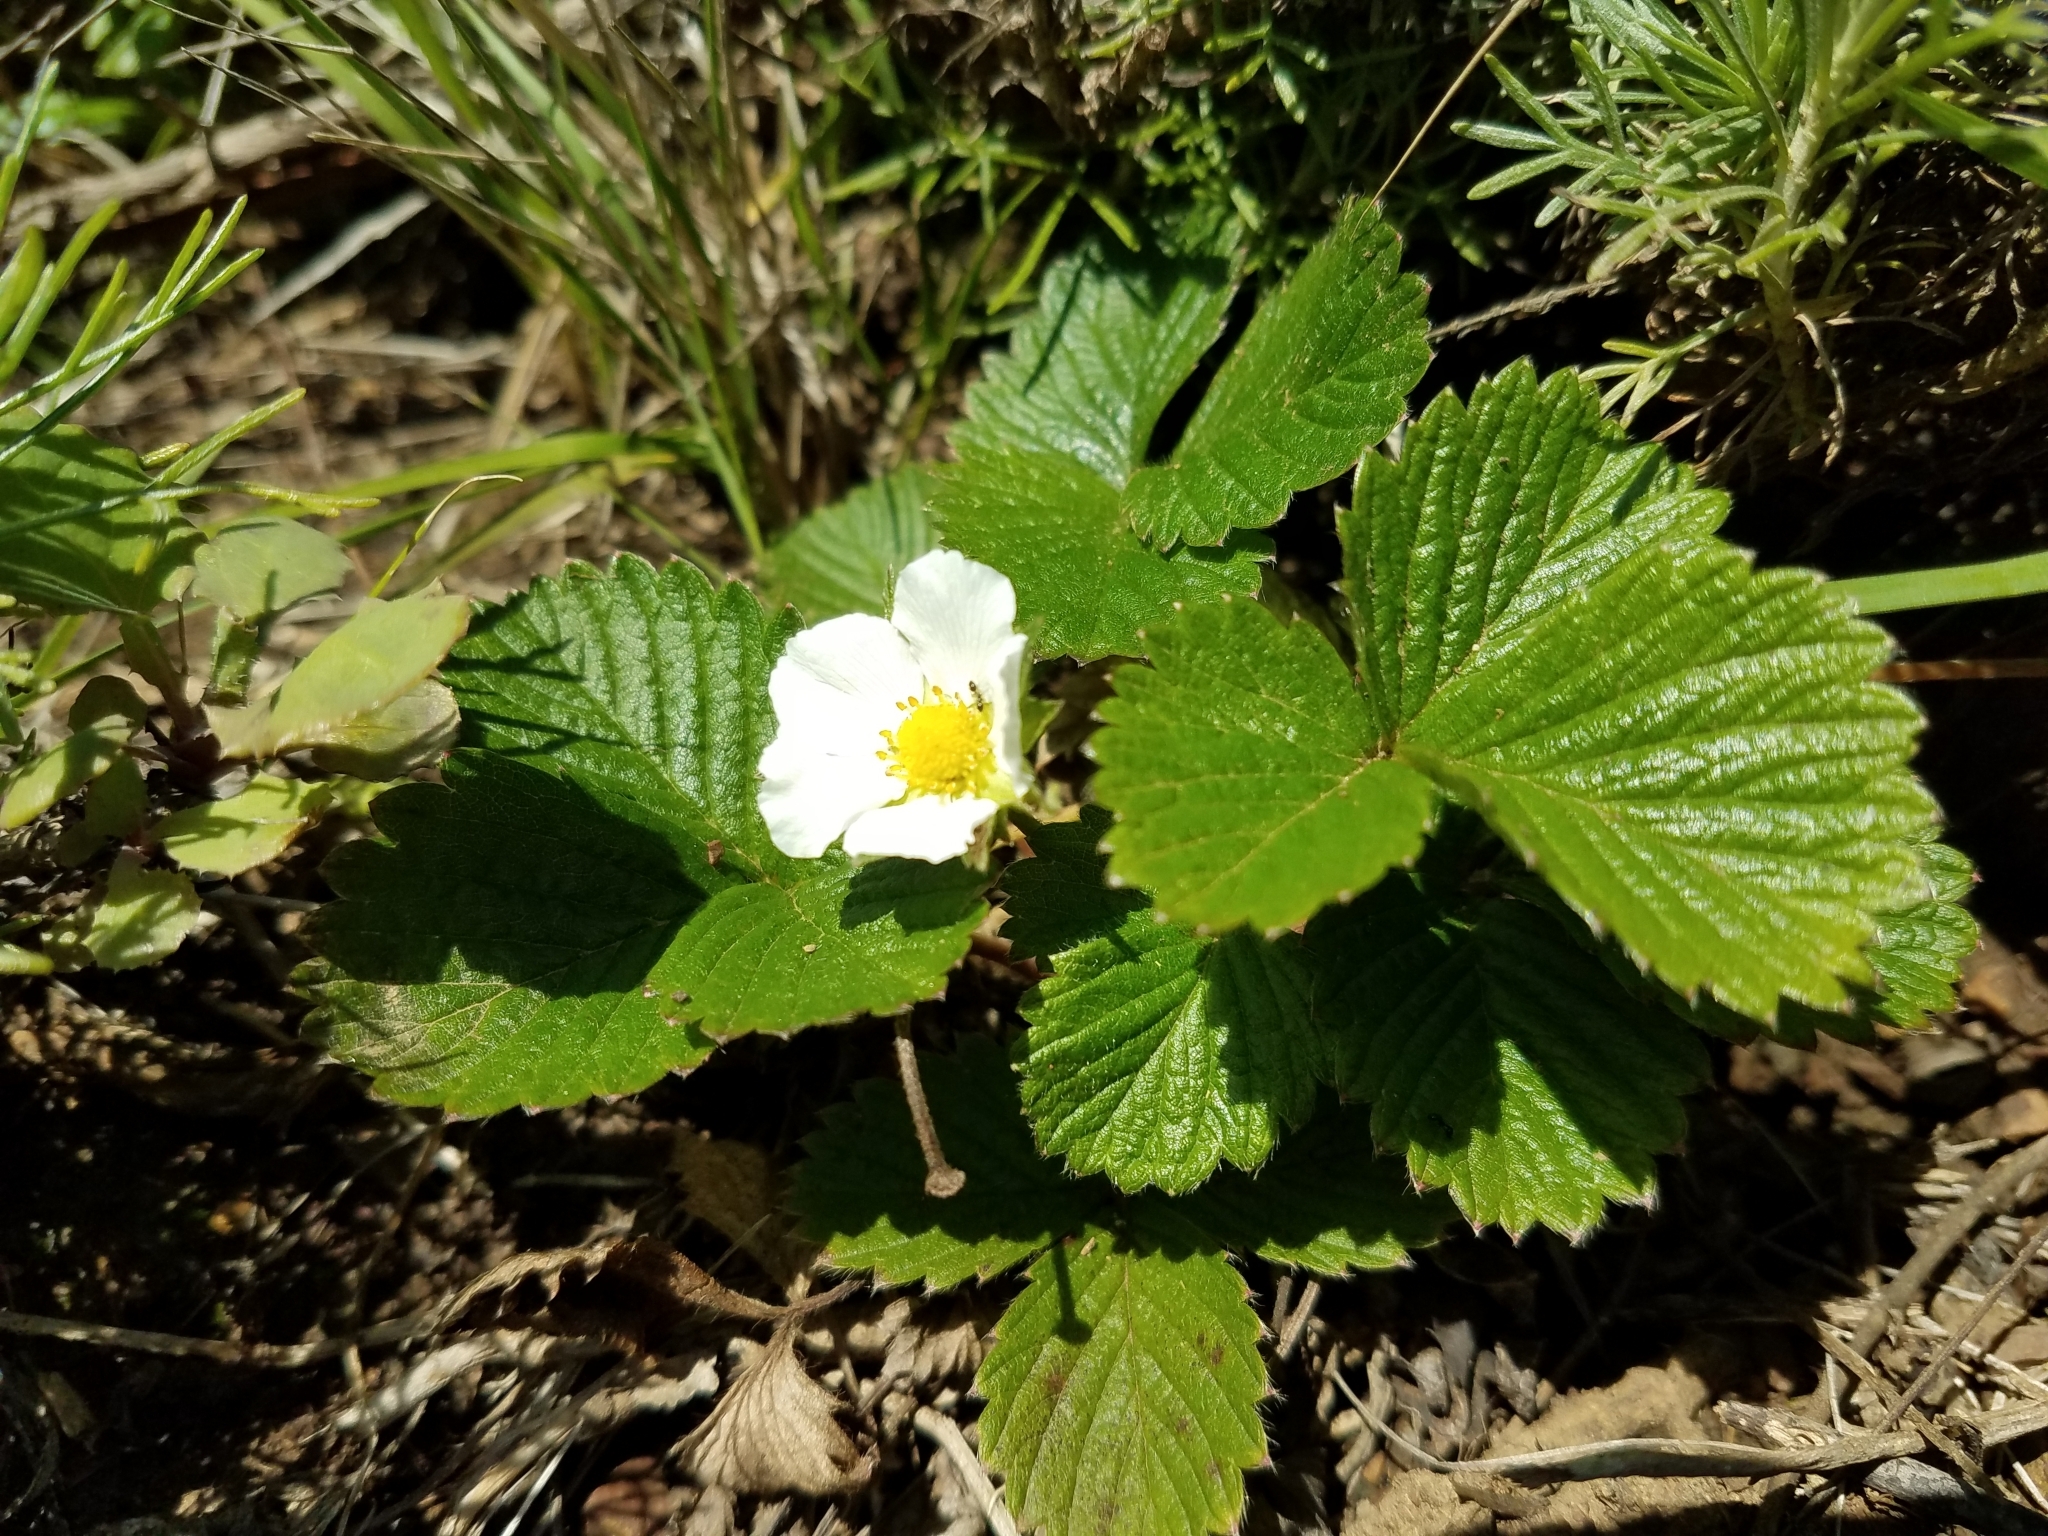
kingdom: Plantae
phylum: Tracheophyta
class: Magnoliopsida
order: Rosales
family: Rosaceae
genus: Fragaria
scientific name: Fragaria vesca
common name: Wild strawberry
